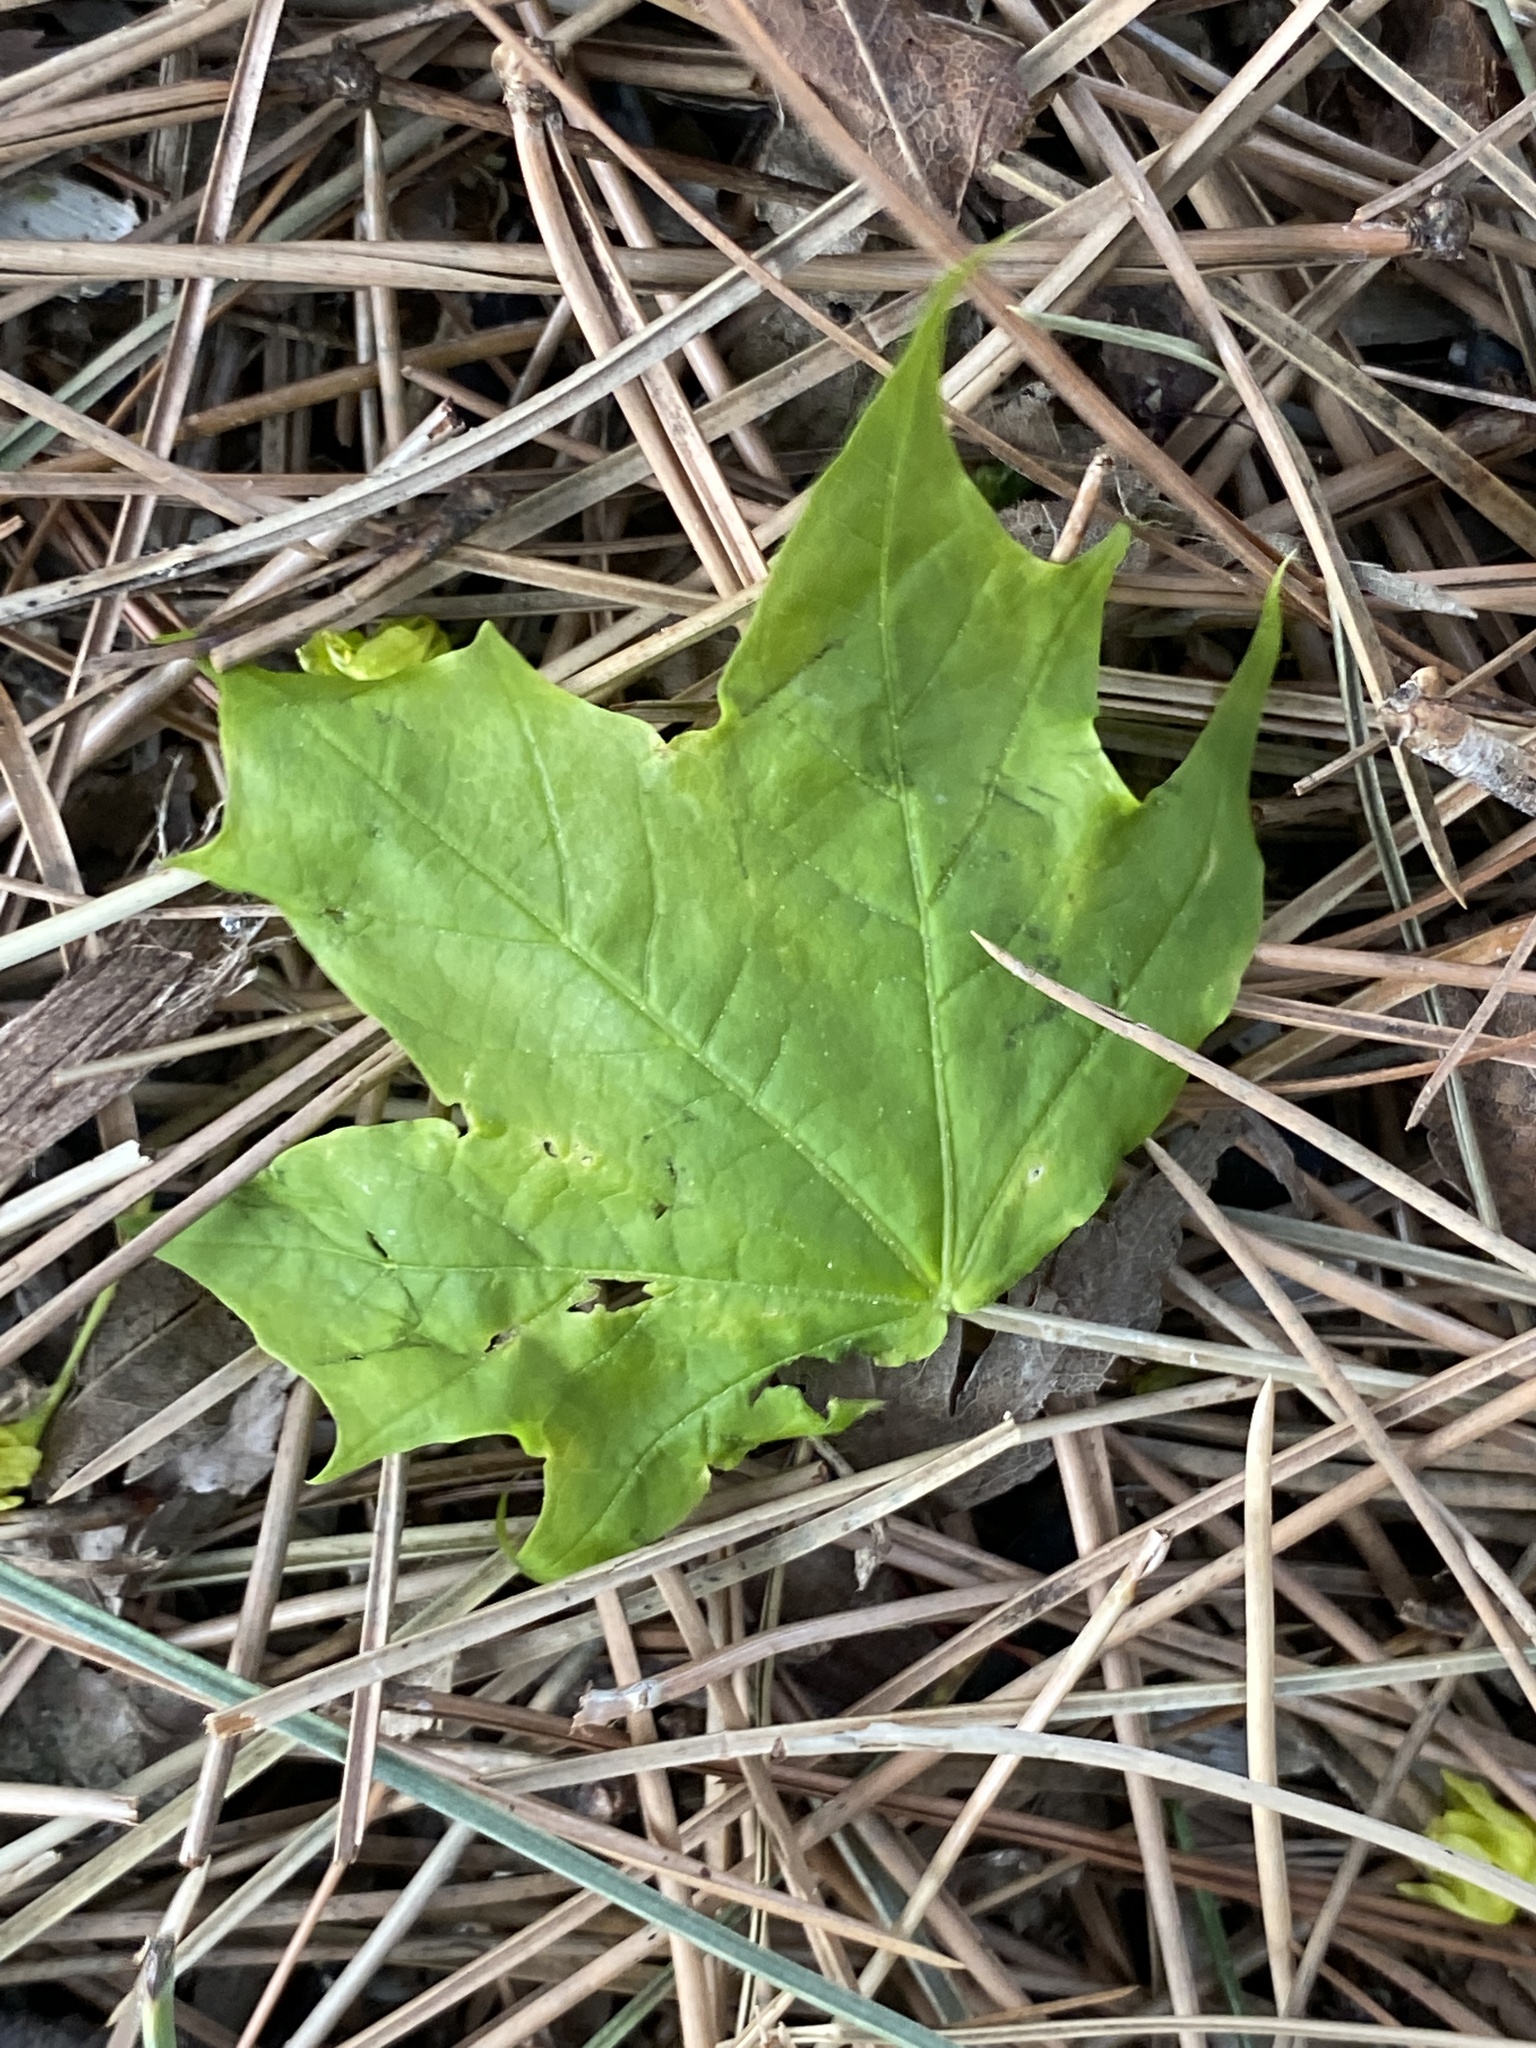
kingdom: Plantae
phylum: Tracheophyta
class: Magnoliopsida
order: Sapindales
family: Sapindaceae
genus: Acer
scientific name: Acer platanoides
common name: Norway maple
